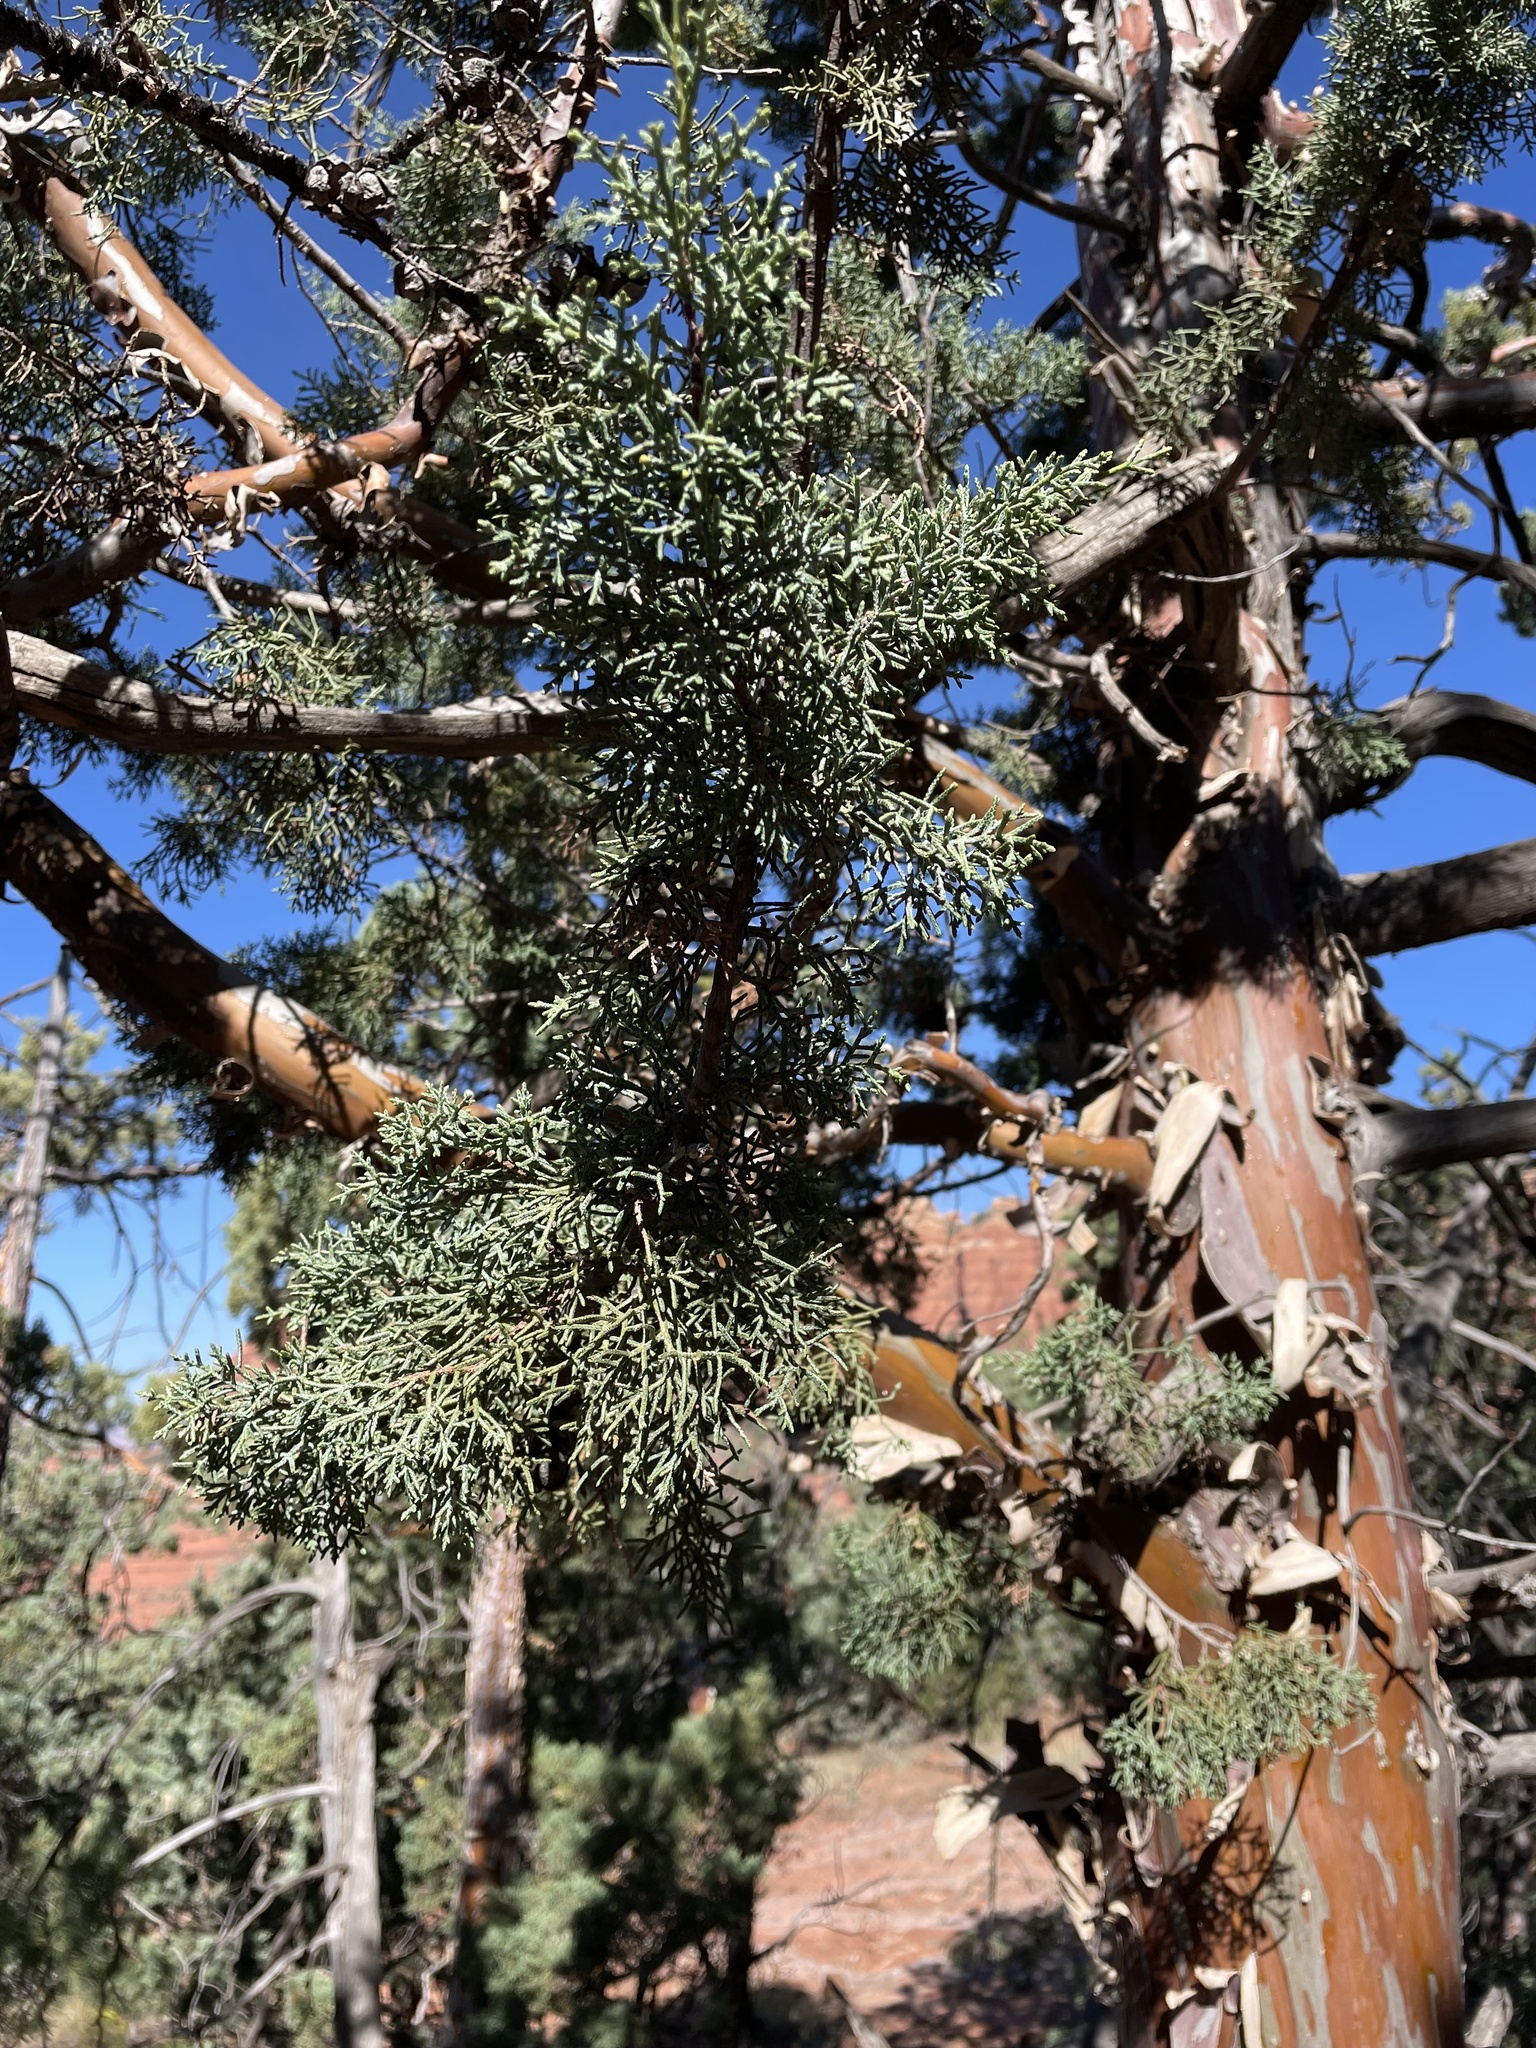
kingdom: Plantae
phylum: Tracheophyta
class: Pinopsida
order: Pinales
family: Cupressaceae
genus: Cupressus
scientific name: Cupressus arizonica
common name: Arizona cypress
